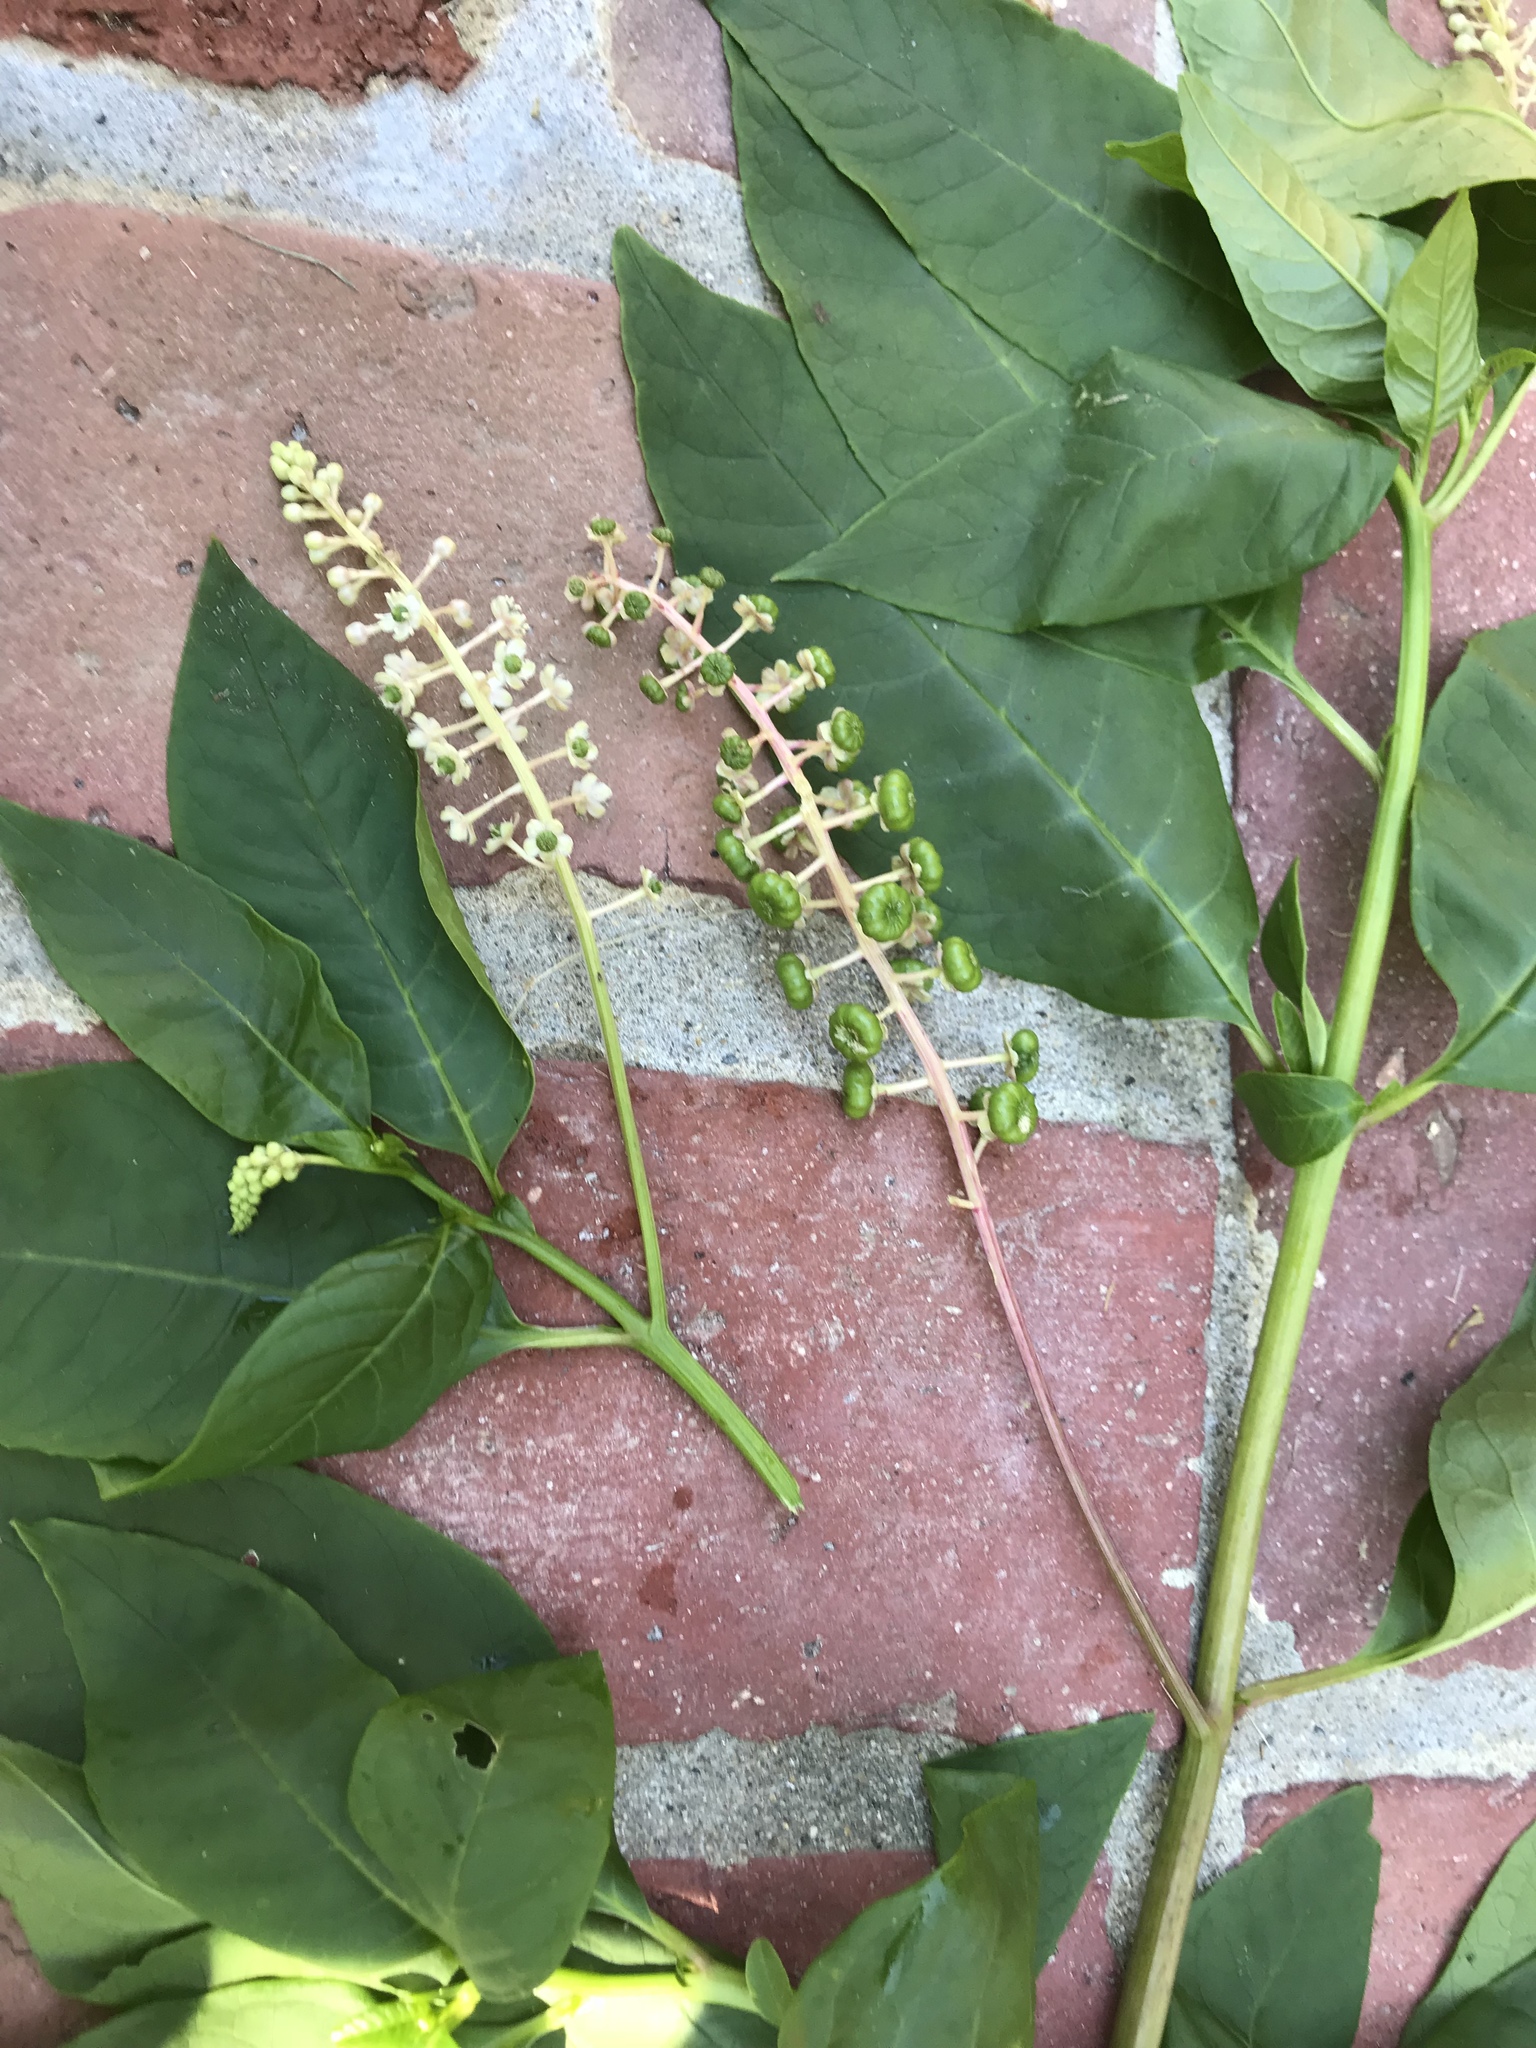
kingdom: Plantae
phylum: Tracheophyta
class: Magnoliopsida
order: Caryophyllales
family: Phytolaccaceae
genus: Phytolacca
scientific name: Phytolacca americana
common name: American pokeweed
